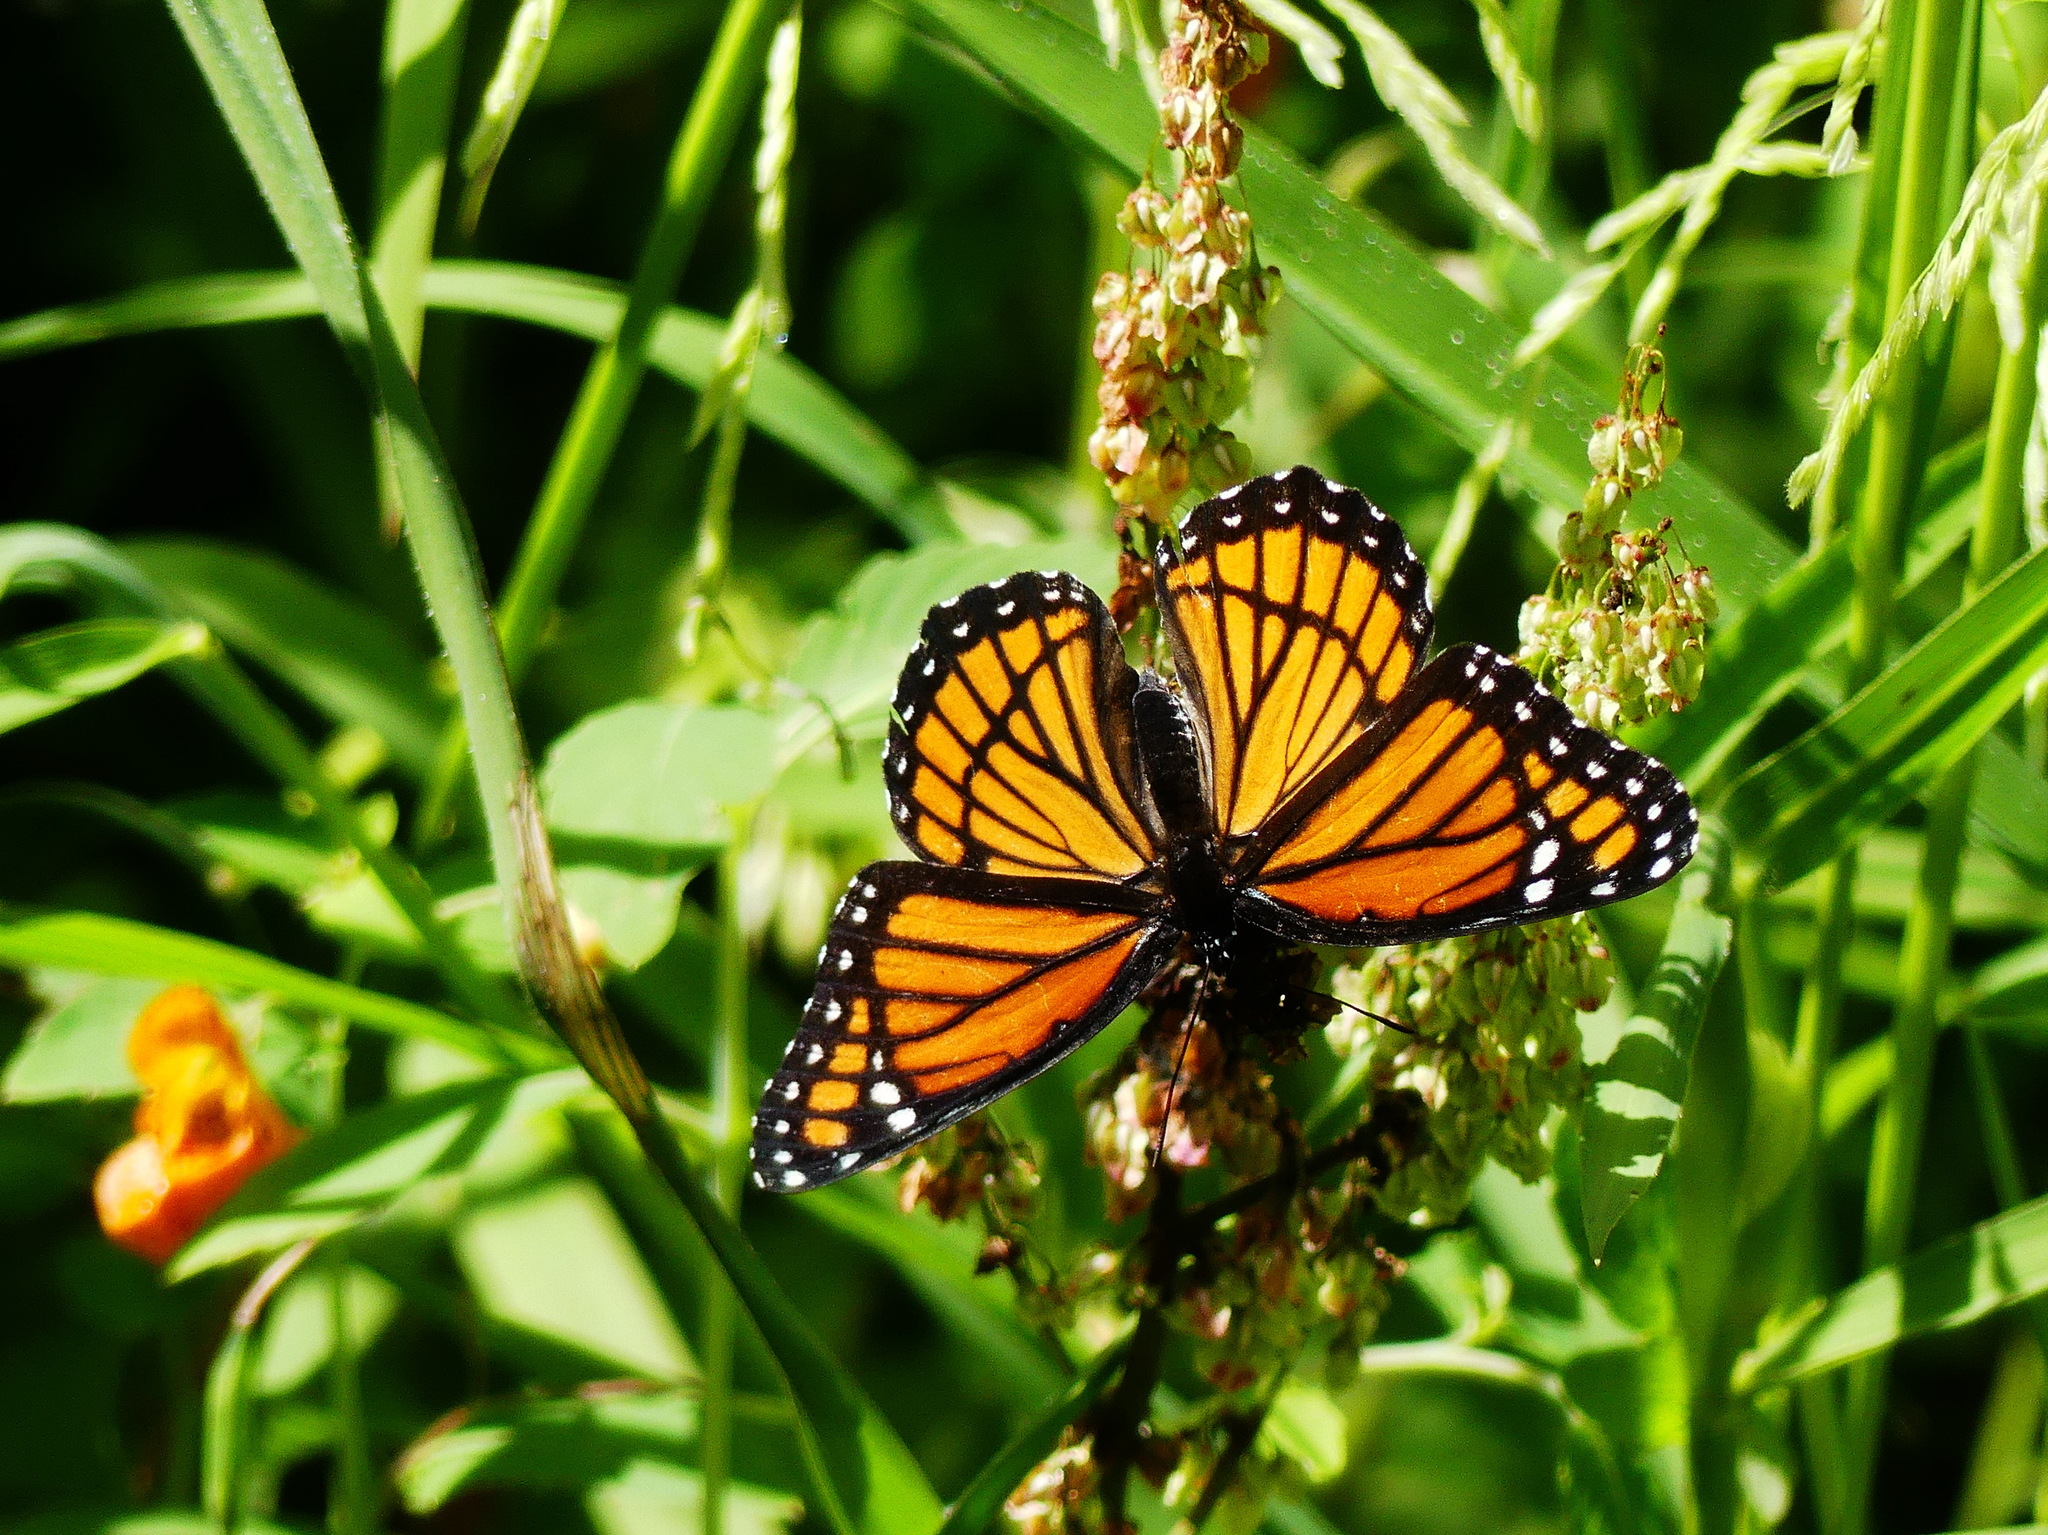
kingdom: Animalia
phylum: Arthropoda
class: Insecta
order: Lepidoptera
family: Nymphalidae
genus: Limenitis
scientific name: Limenitis archippus
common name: Viceroy
